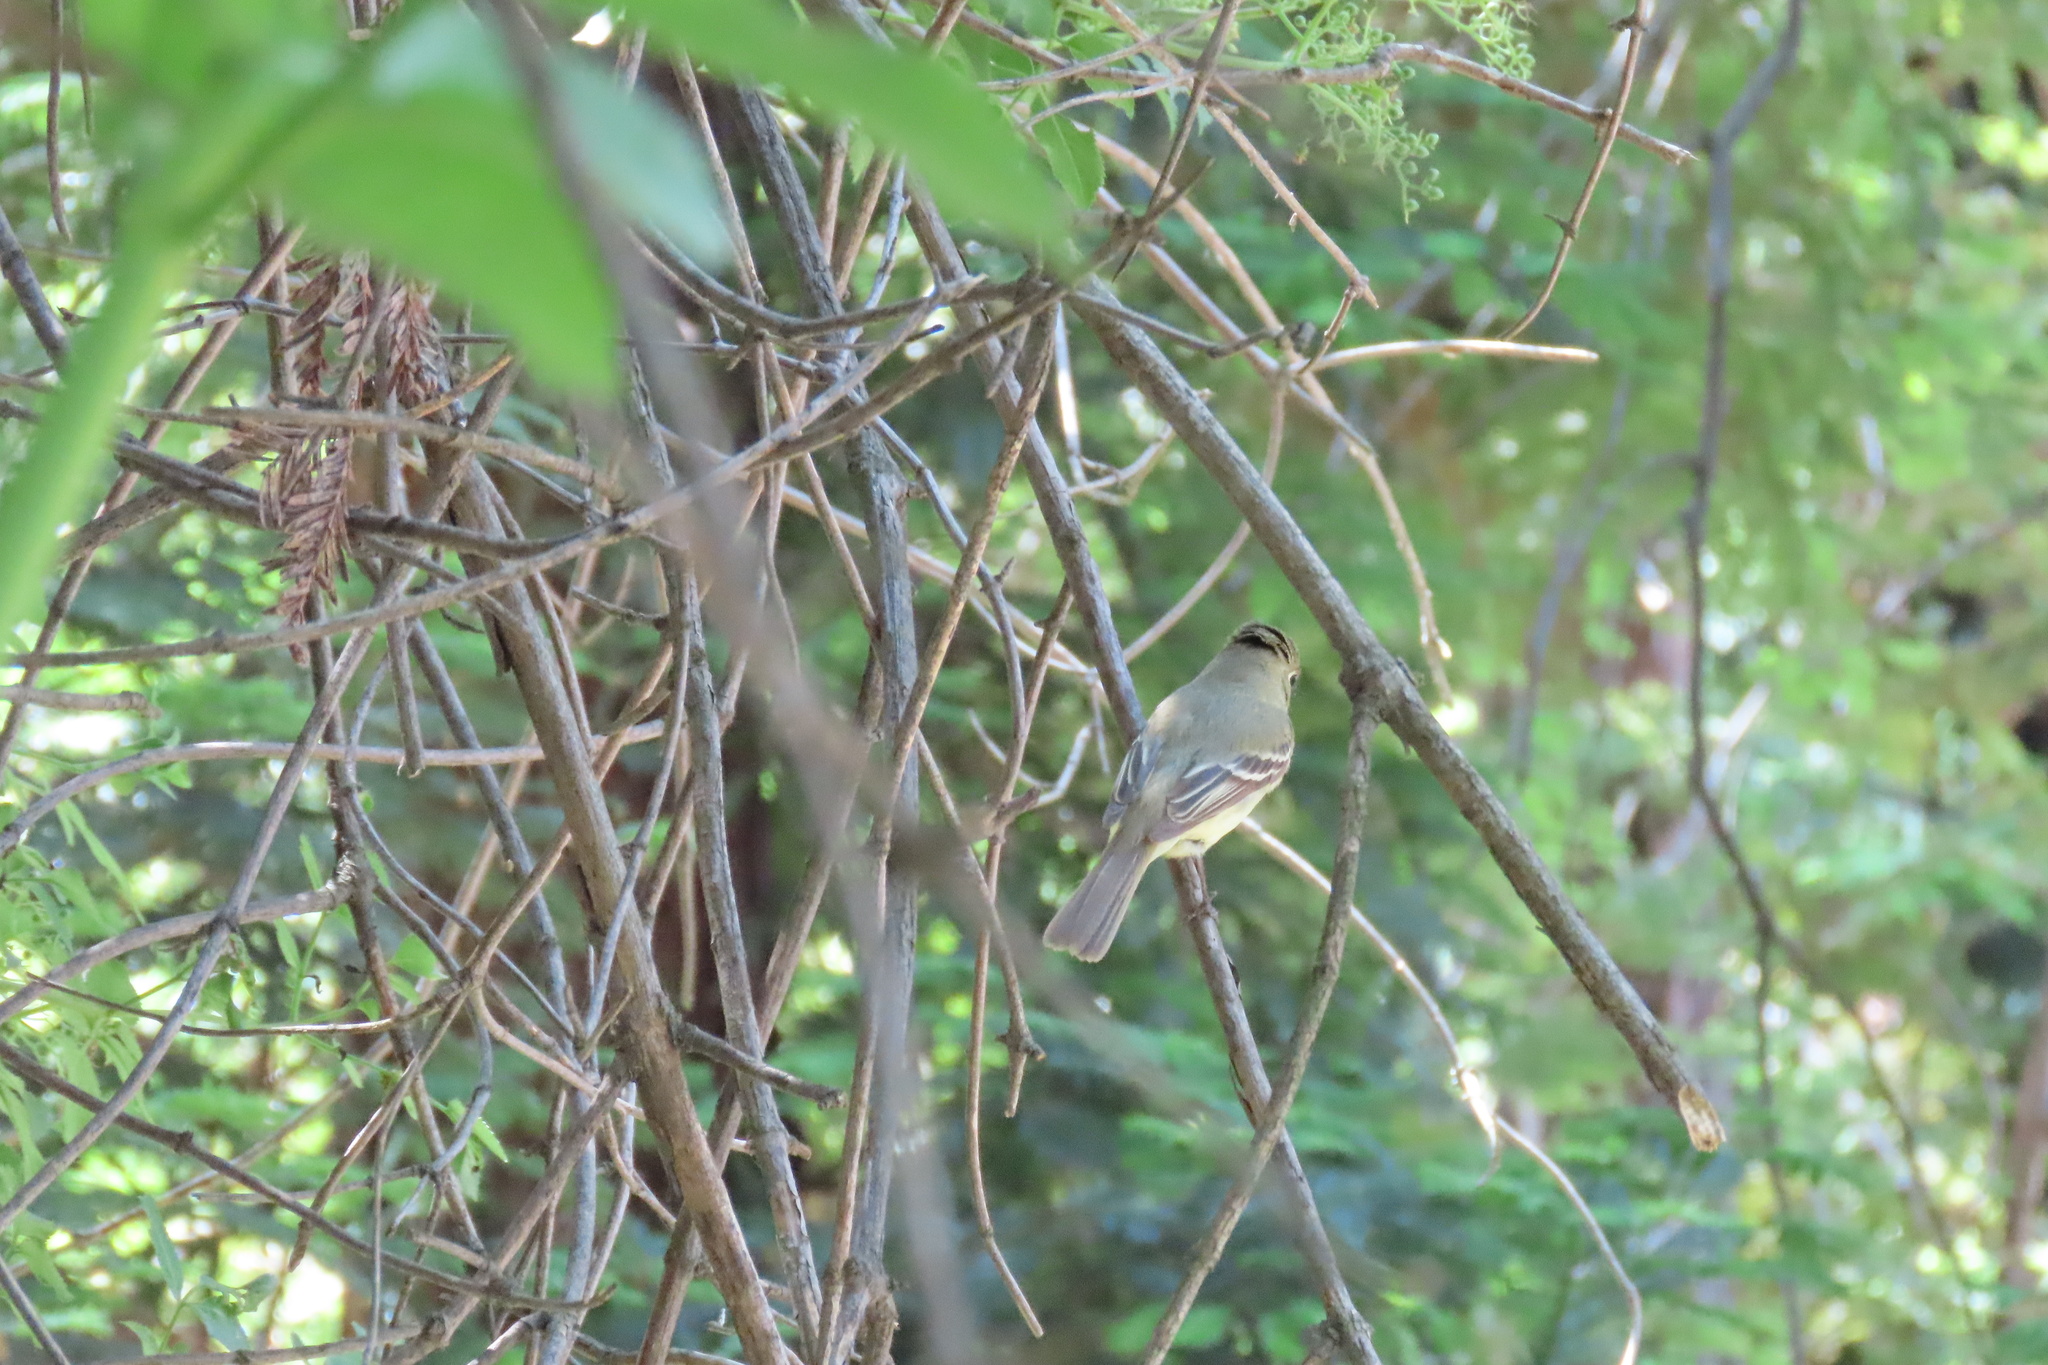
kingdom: Animalia
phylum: Chordata
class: Aves
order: Passeriformes
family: Tyrannidae
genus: Empidonax
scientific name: Empidonax difficilis
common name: Pacific-slope flycatcher
